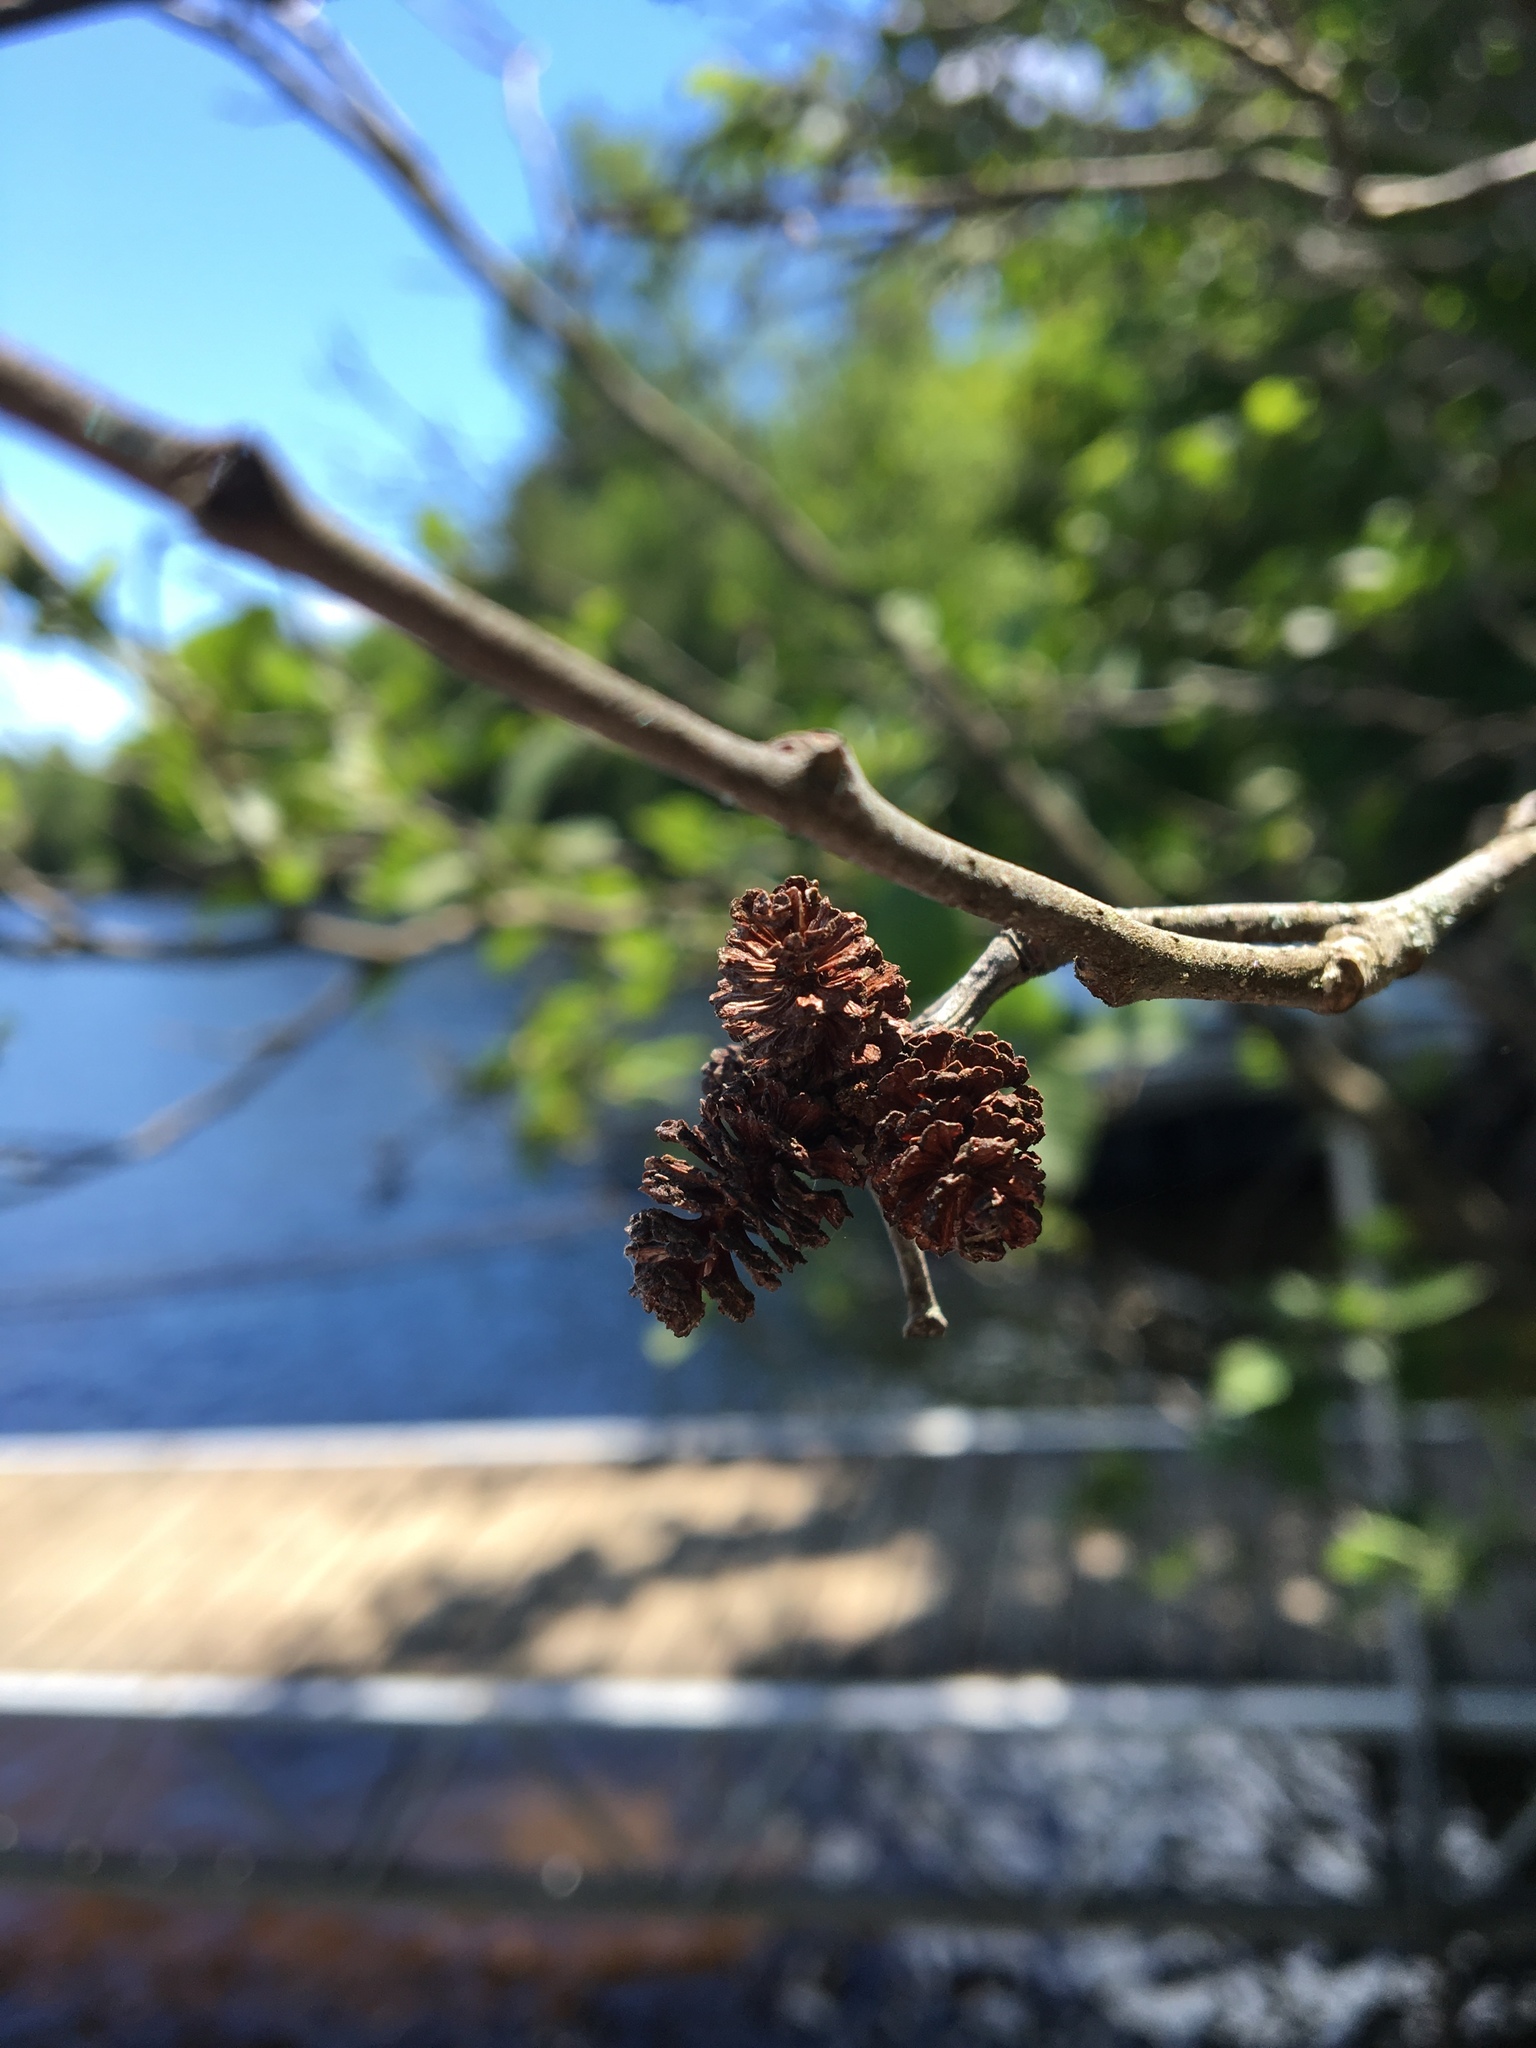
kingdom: Plantae
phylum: Tracheophyta
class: Magnoliopsida
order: Fagales
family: Betulaceae
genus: Alnus
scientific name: Alnus incana
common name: Grey alder
